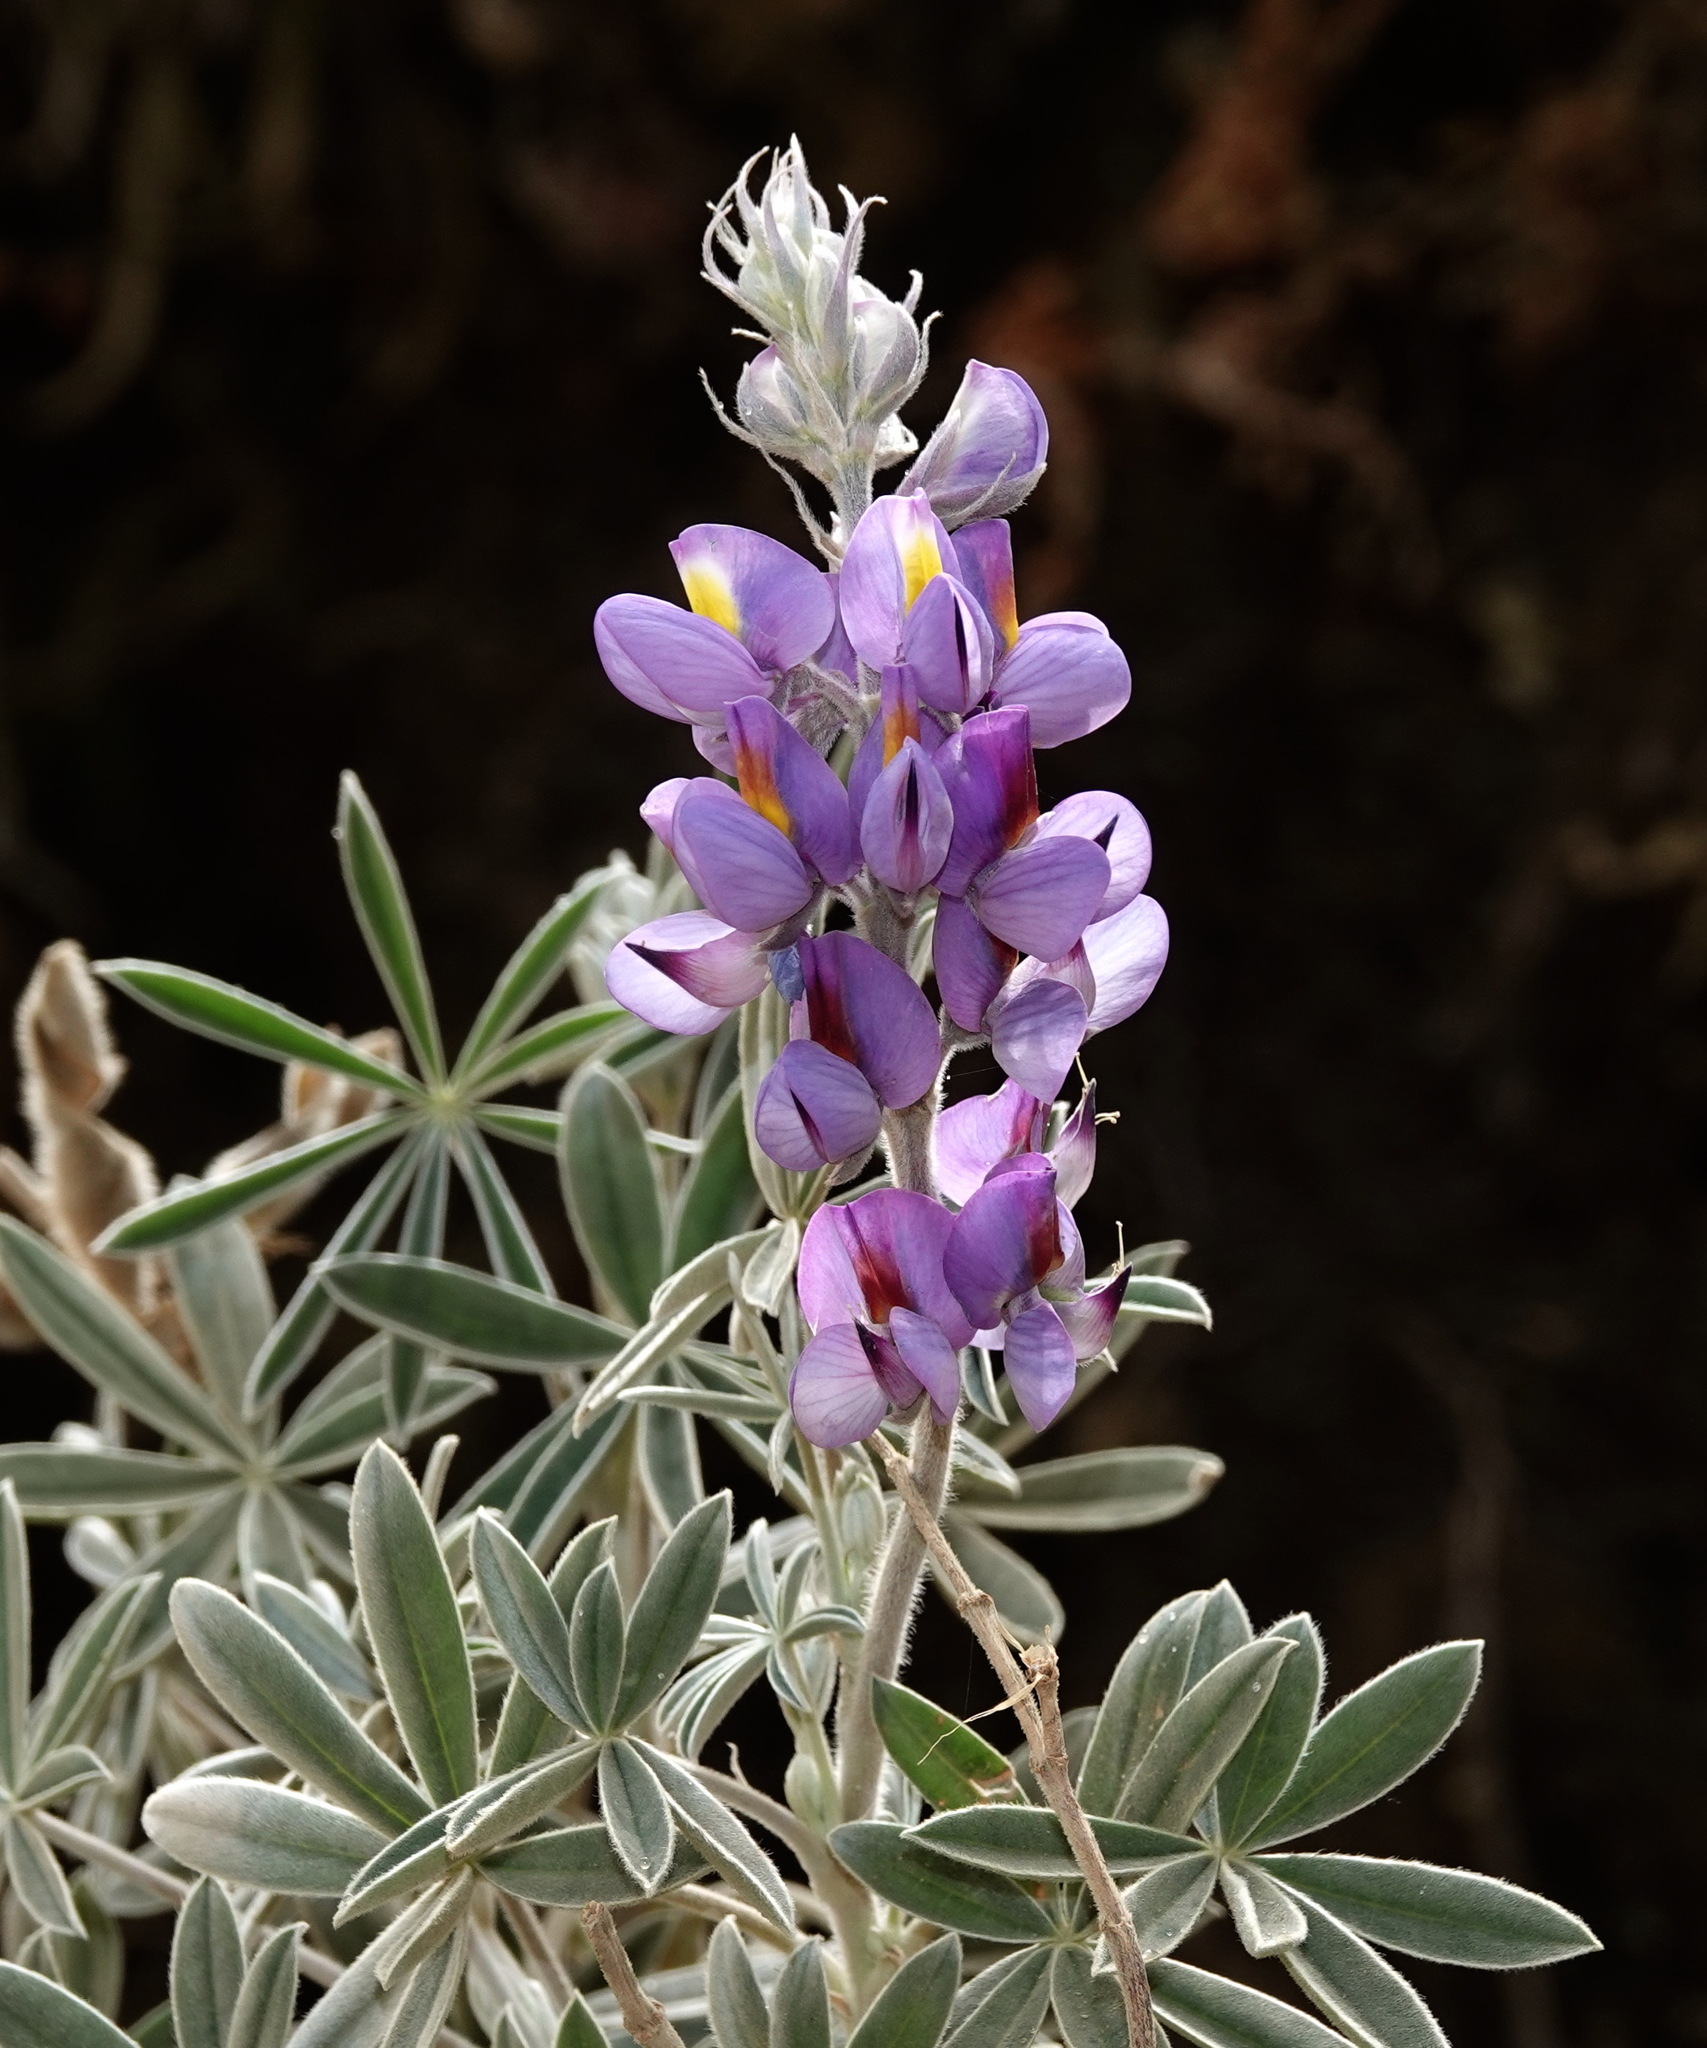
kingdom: Plantae
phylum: Tracheophyta
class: Magnoliopsida
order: Fabales
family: Fabaceae
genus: Lupinus
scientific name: Lupinus altimontanus
